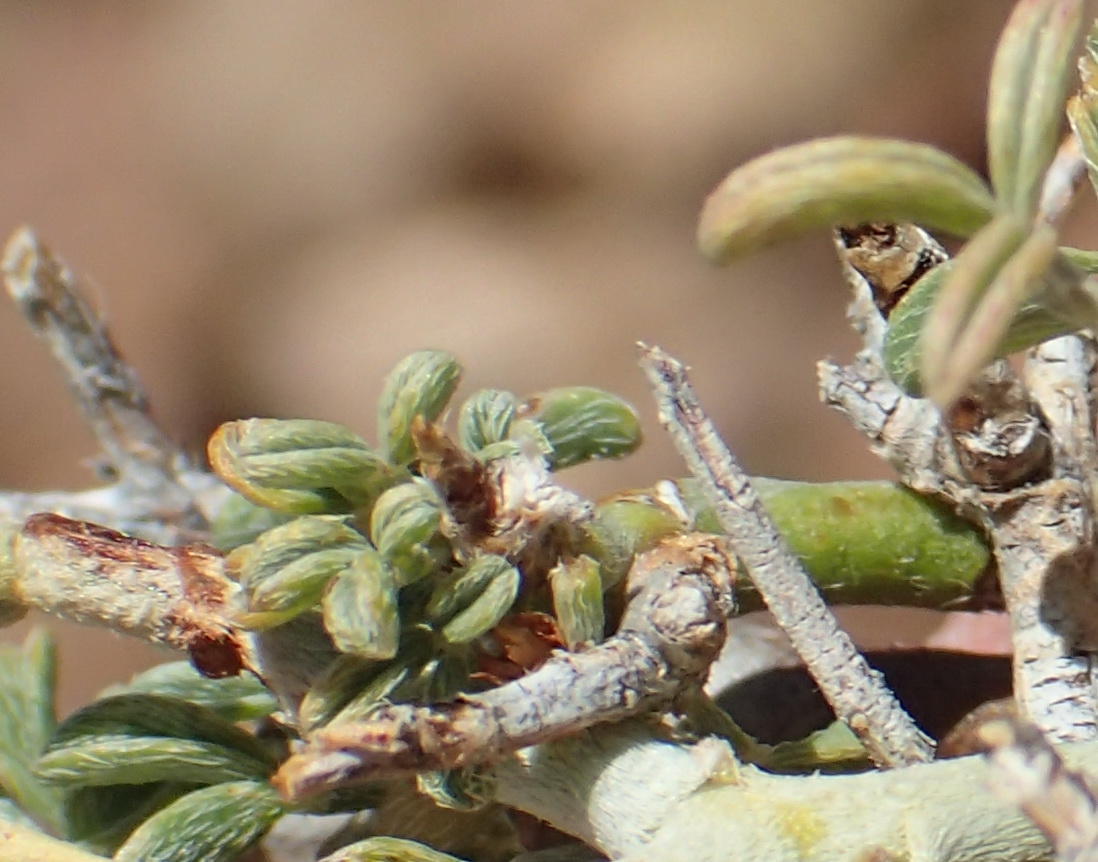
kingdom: Plantae
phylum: Tracheophyta
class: Magnoliopsida
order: Fabales
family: Fabaceae
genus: Indigofera
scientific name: Indigofera pungens
